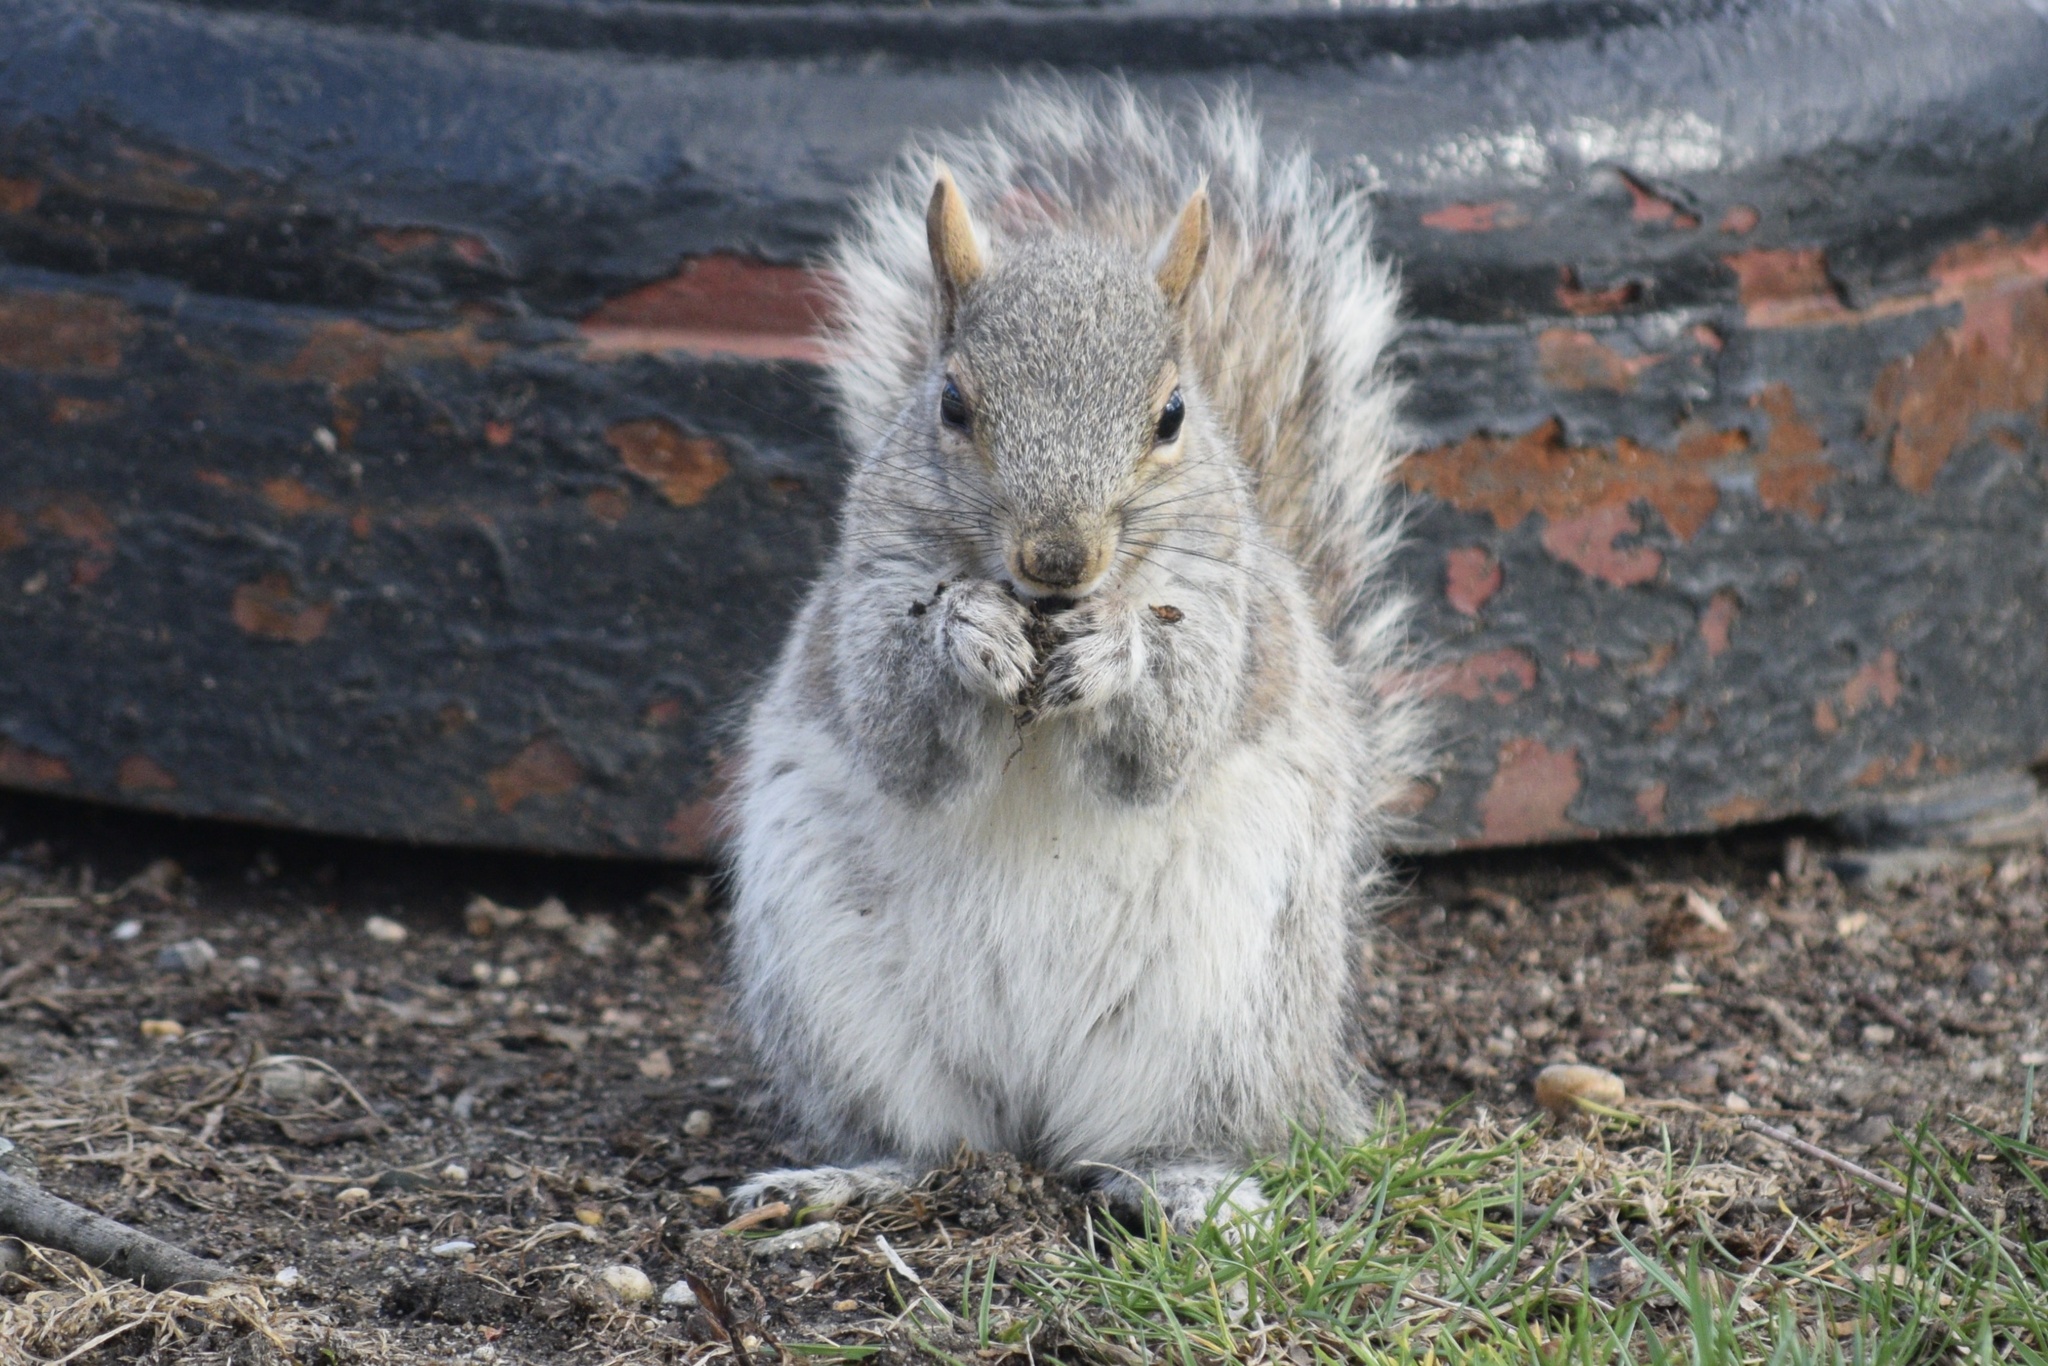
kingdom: Animalia
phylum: Chordata
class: Mammalia
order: Rodentia
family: Sciuridae
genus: Sciurus
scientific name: Sciurus carolinensis
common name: Eastern gray squirrel
